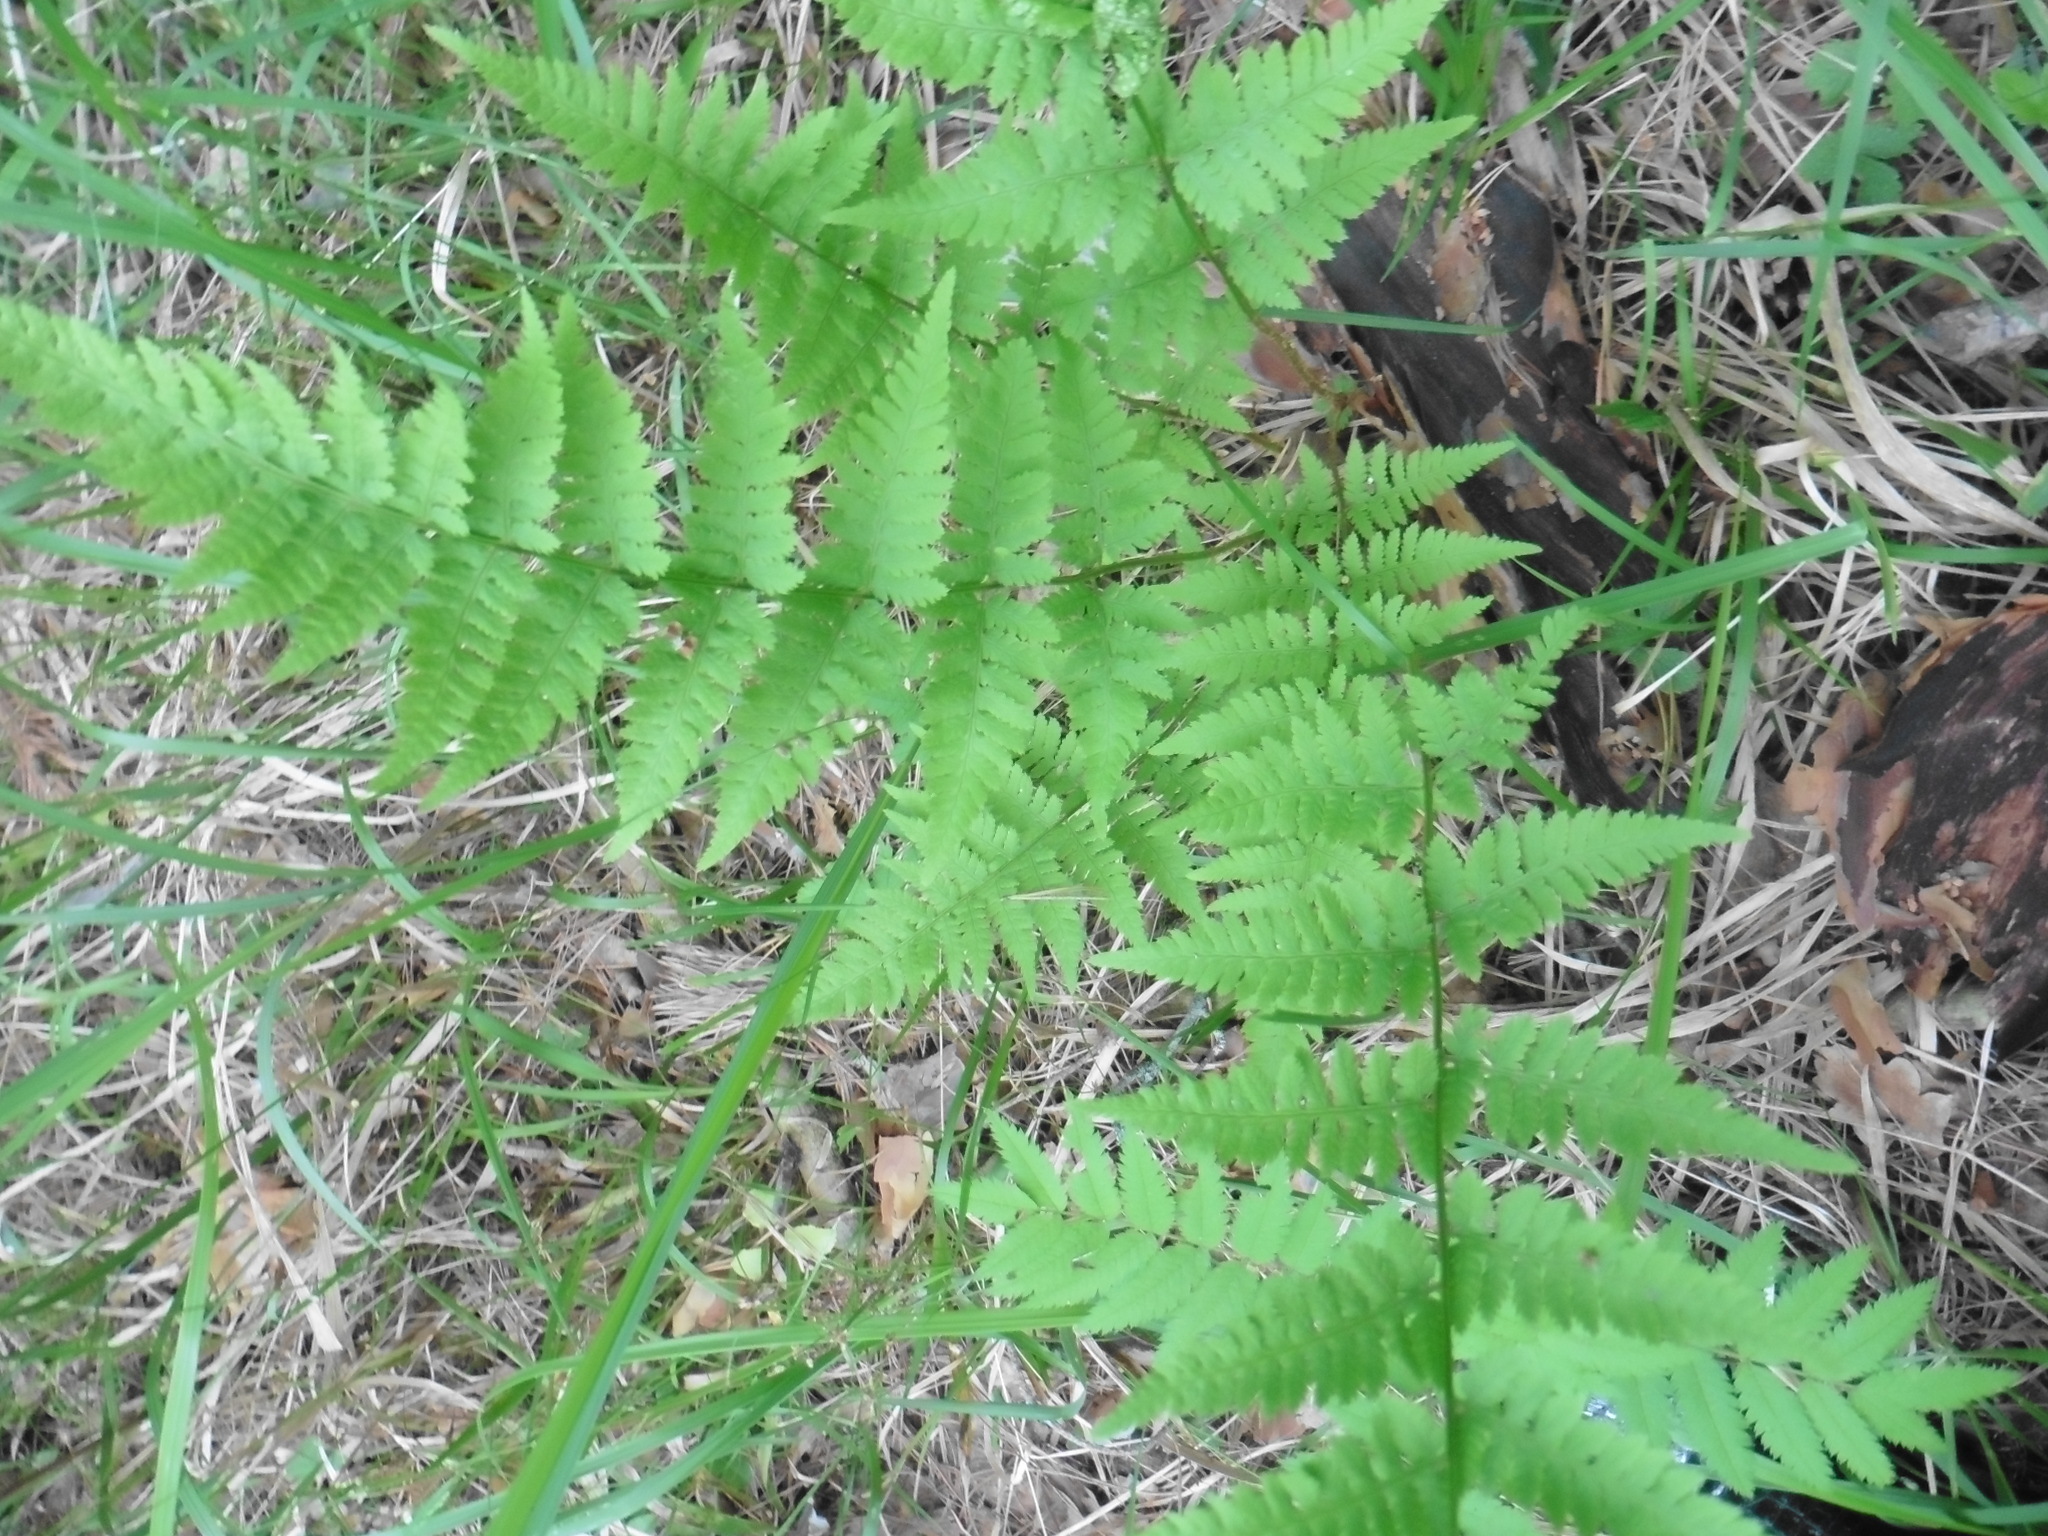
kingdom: Plantae
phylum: Tracheophyta
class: Polypodiopsida
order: Polypodiales
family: Dryopteridaceae
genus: Dryopteris
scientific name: Dryopteris carthusiana
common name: Narrow buckler-fern
